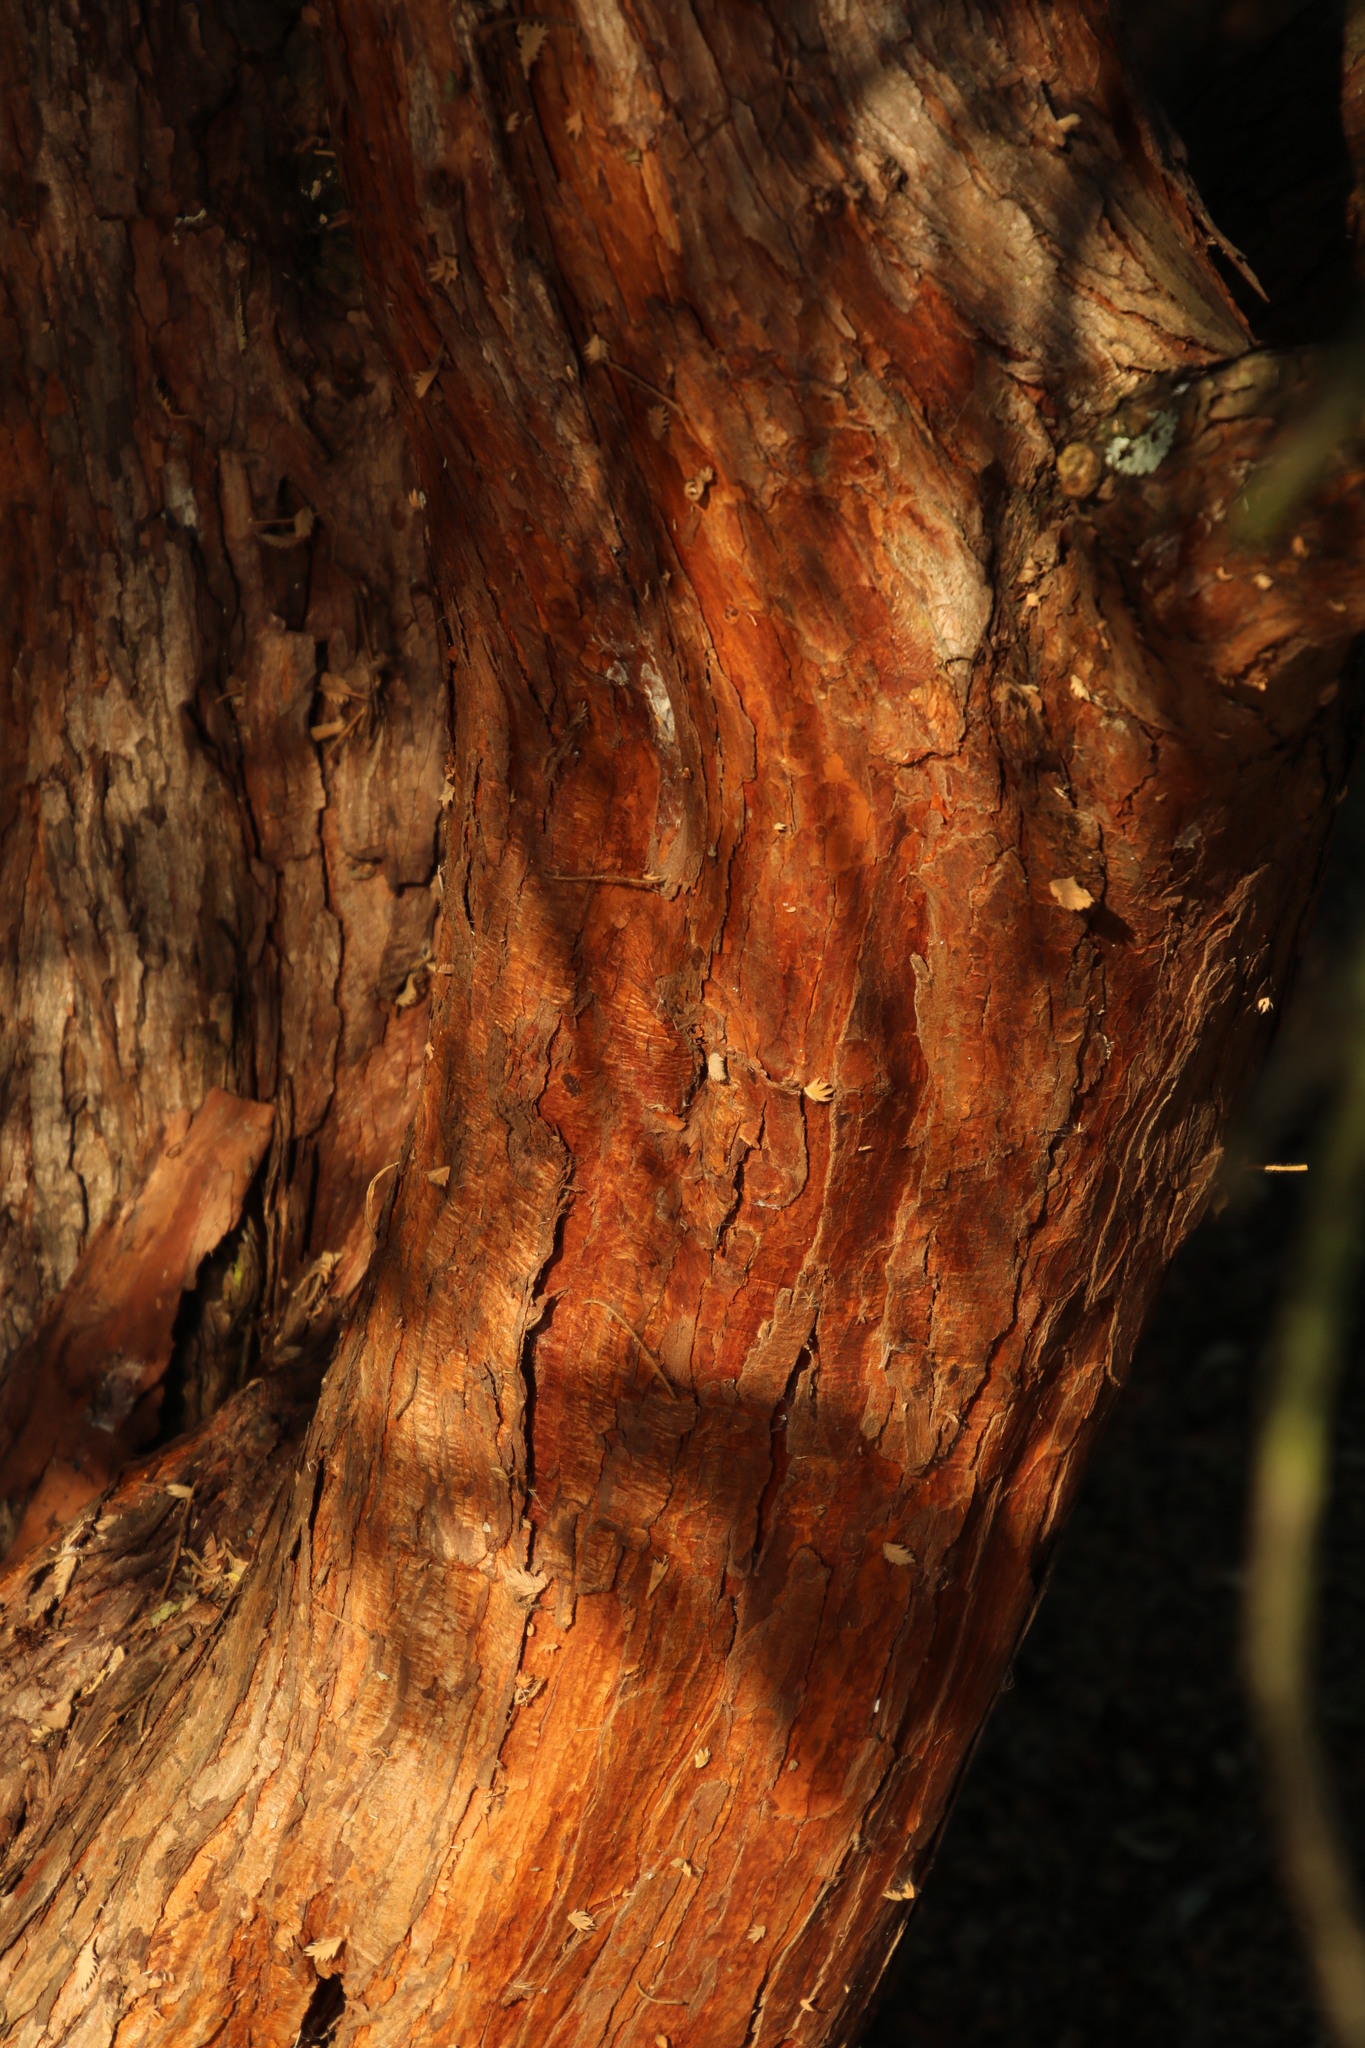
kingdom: Plantae
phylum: Tracheophyta
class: Magnoliopsida
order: Rosales
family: Rosaceae
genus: Leucosidea
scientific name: Leucosidea sericea
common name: Oldwood
